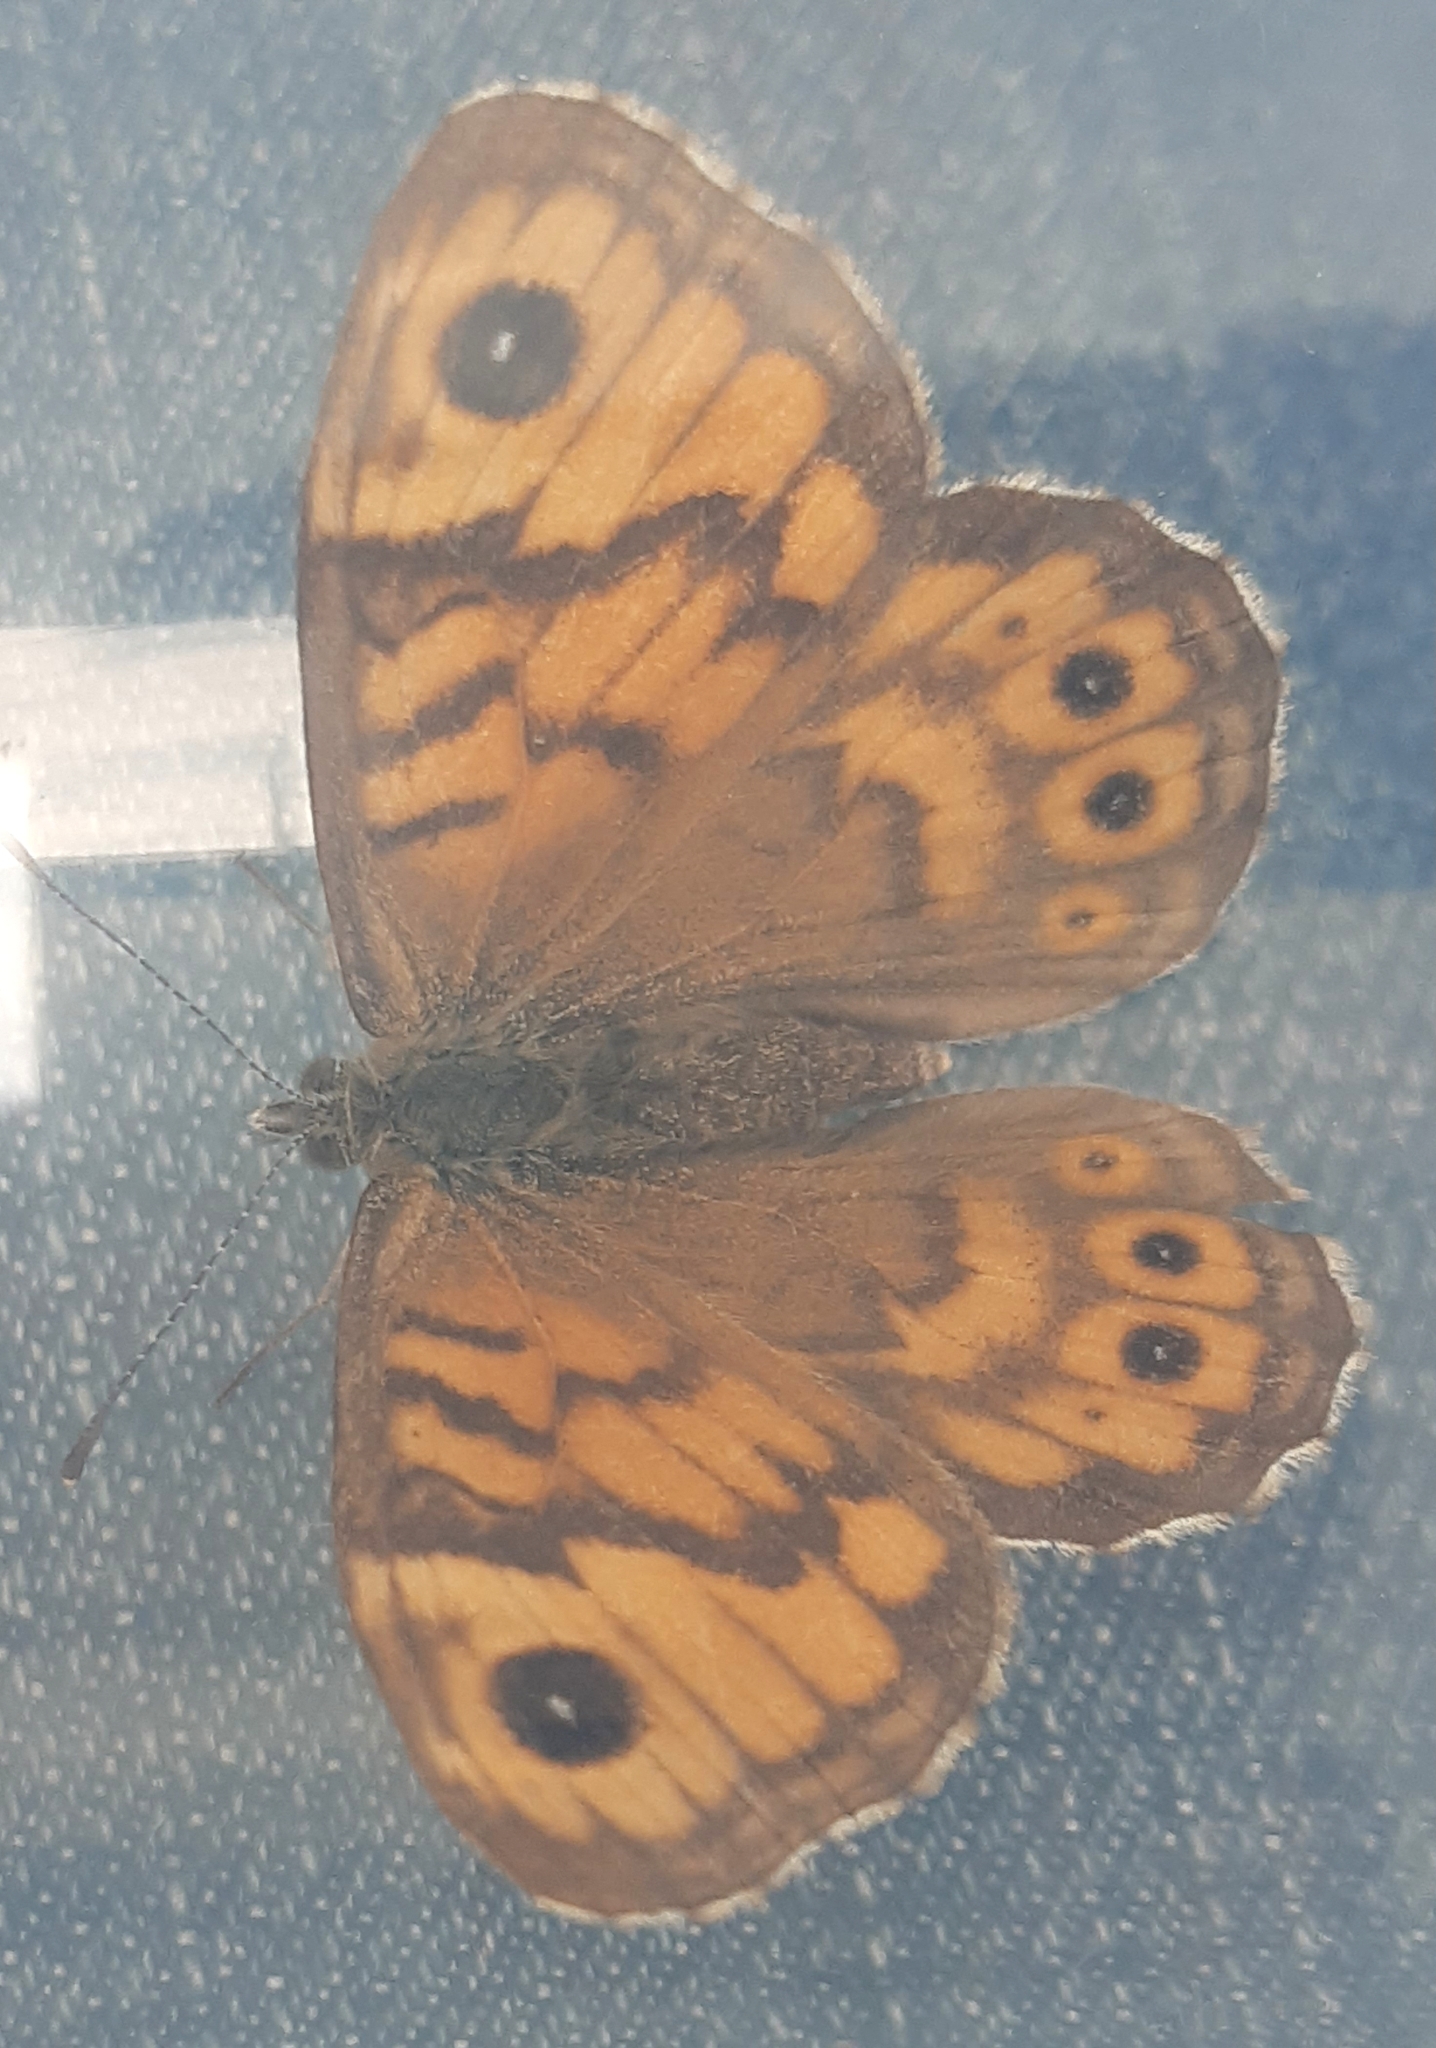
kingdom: Animalia
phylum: Arthropoda
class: Insecta
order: Lepidoptera
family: Nymphalidae
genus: Pararge
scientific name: Pararge Lasiommata megera
